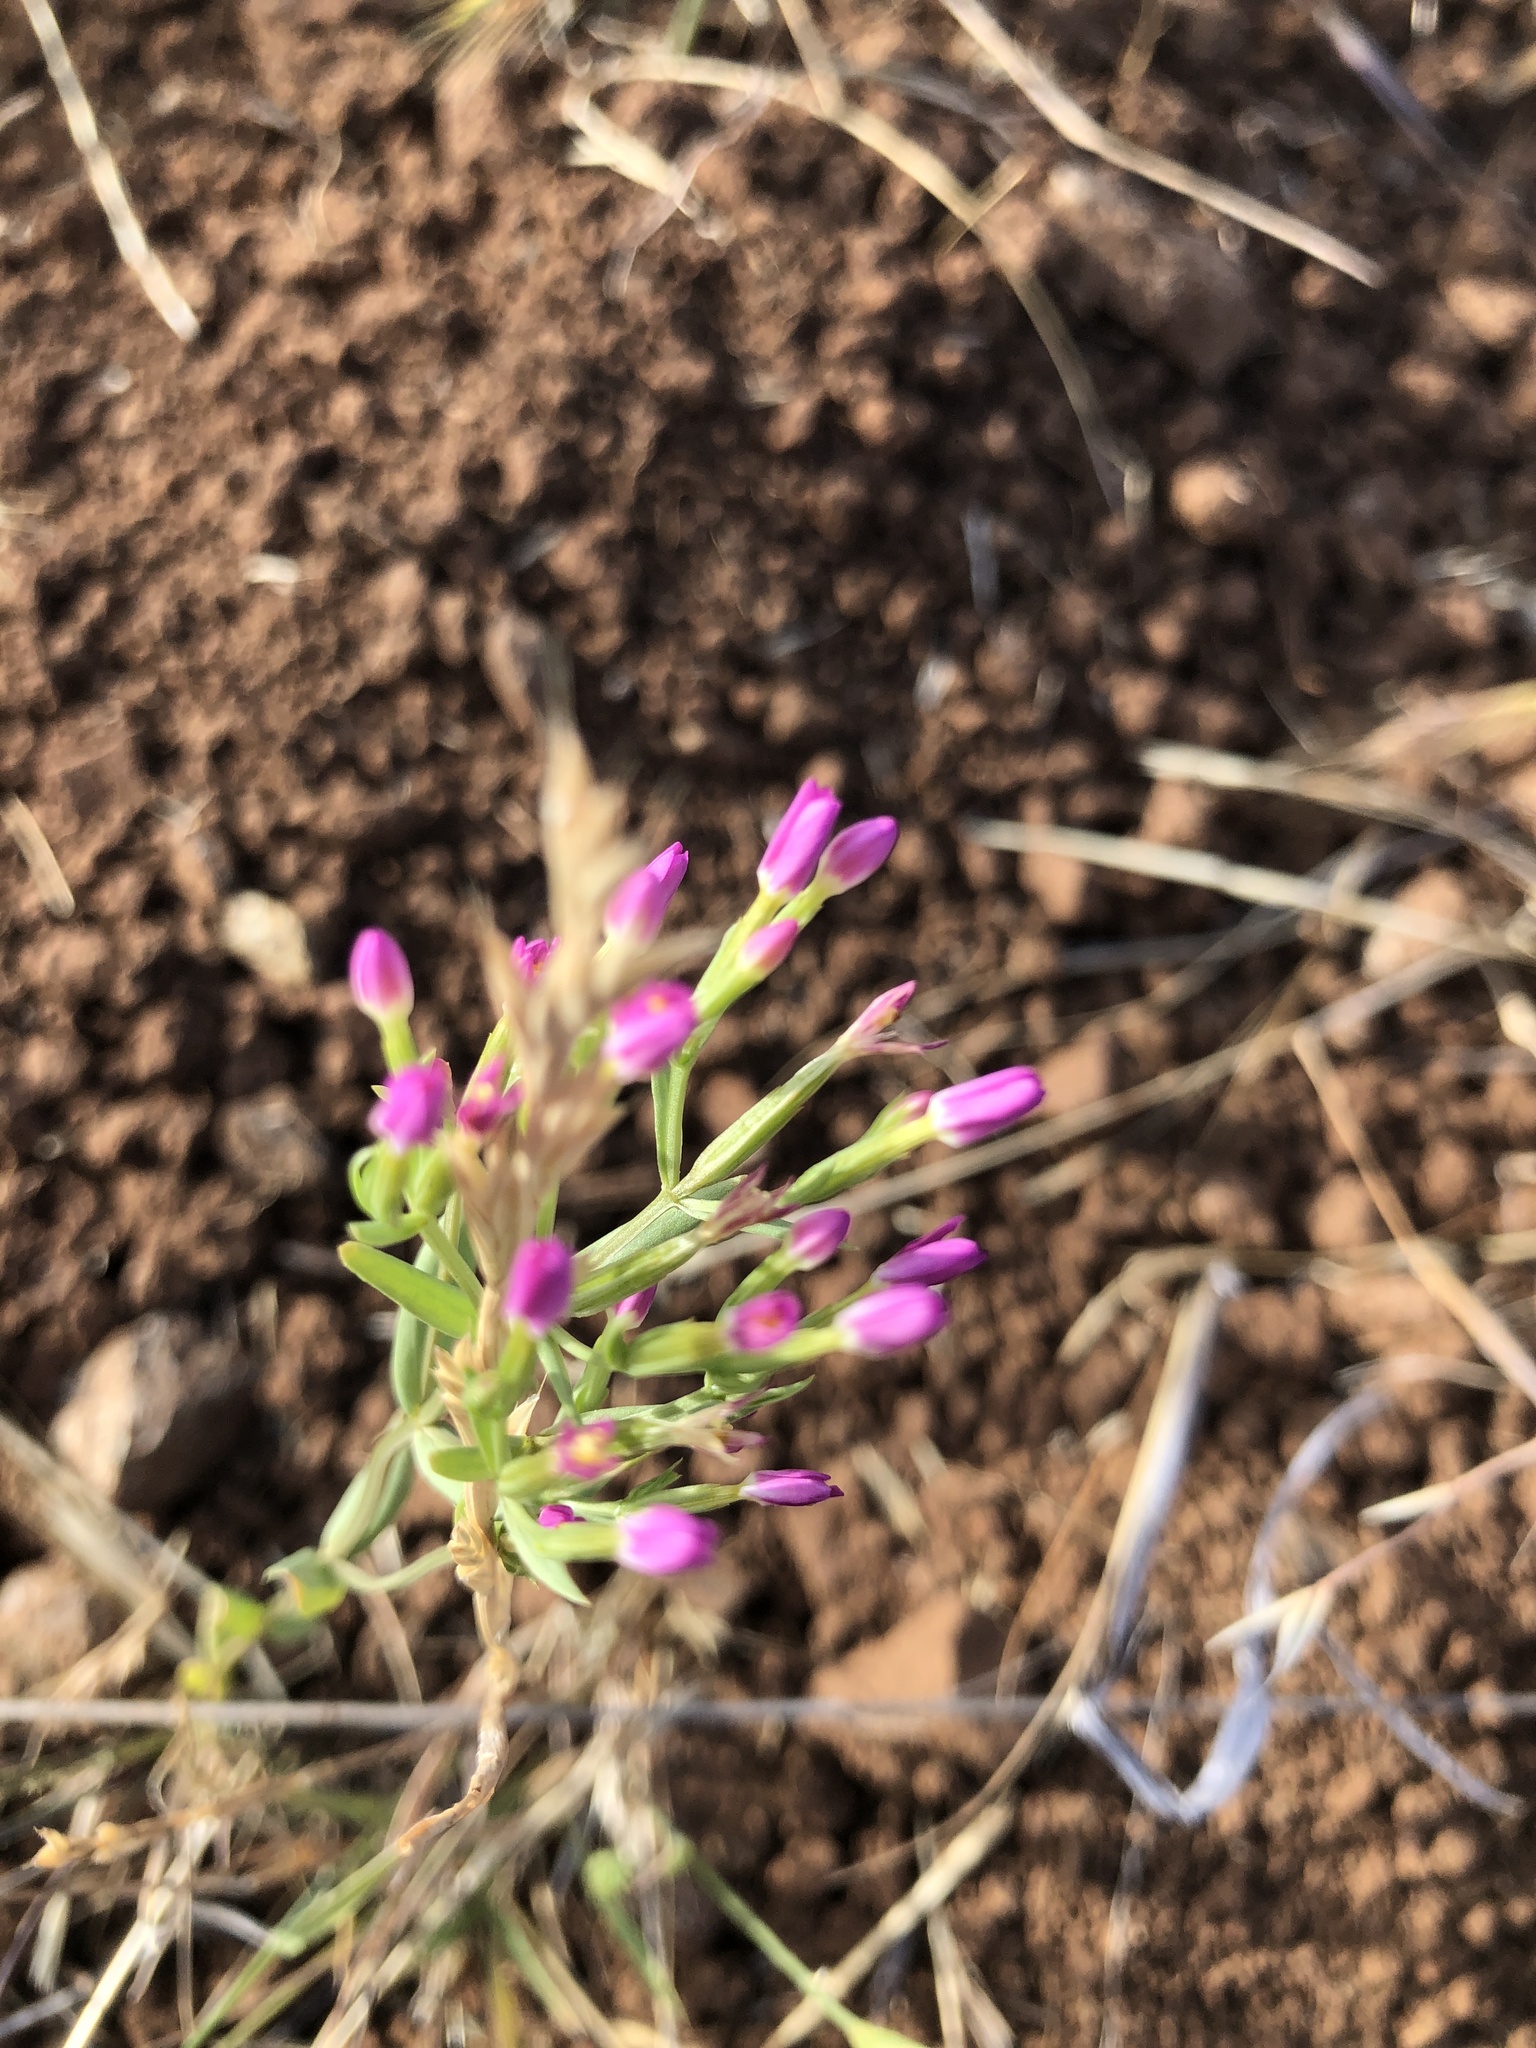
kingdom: Plantae
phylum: Tracheophyta
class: Magnoliopsida
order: Gentianales
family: Gentianaceae
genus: Zeltnera
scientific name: Zeltnera muhlenbergii
